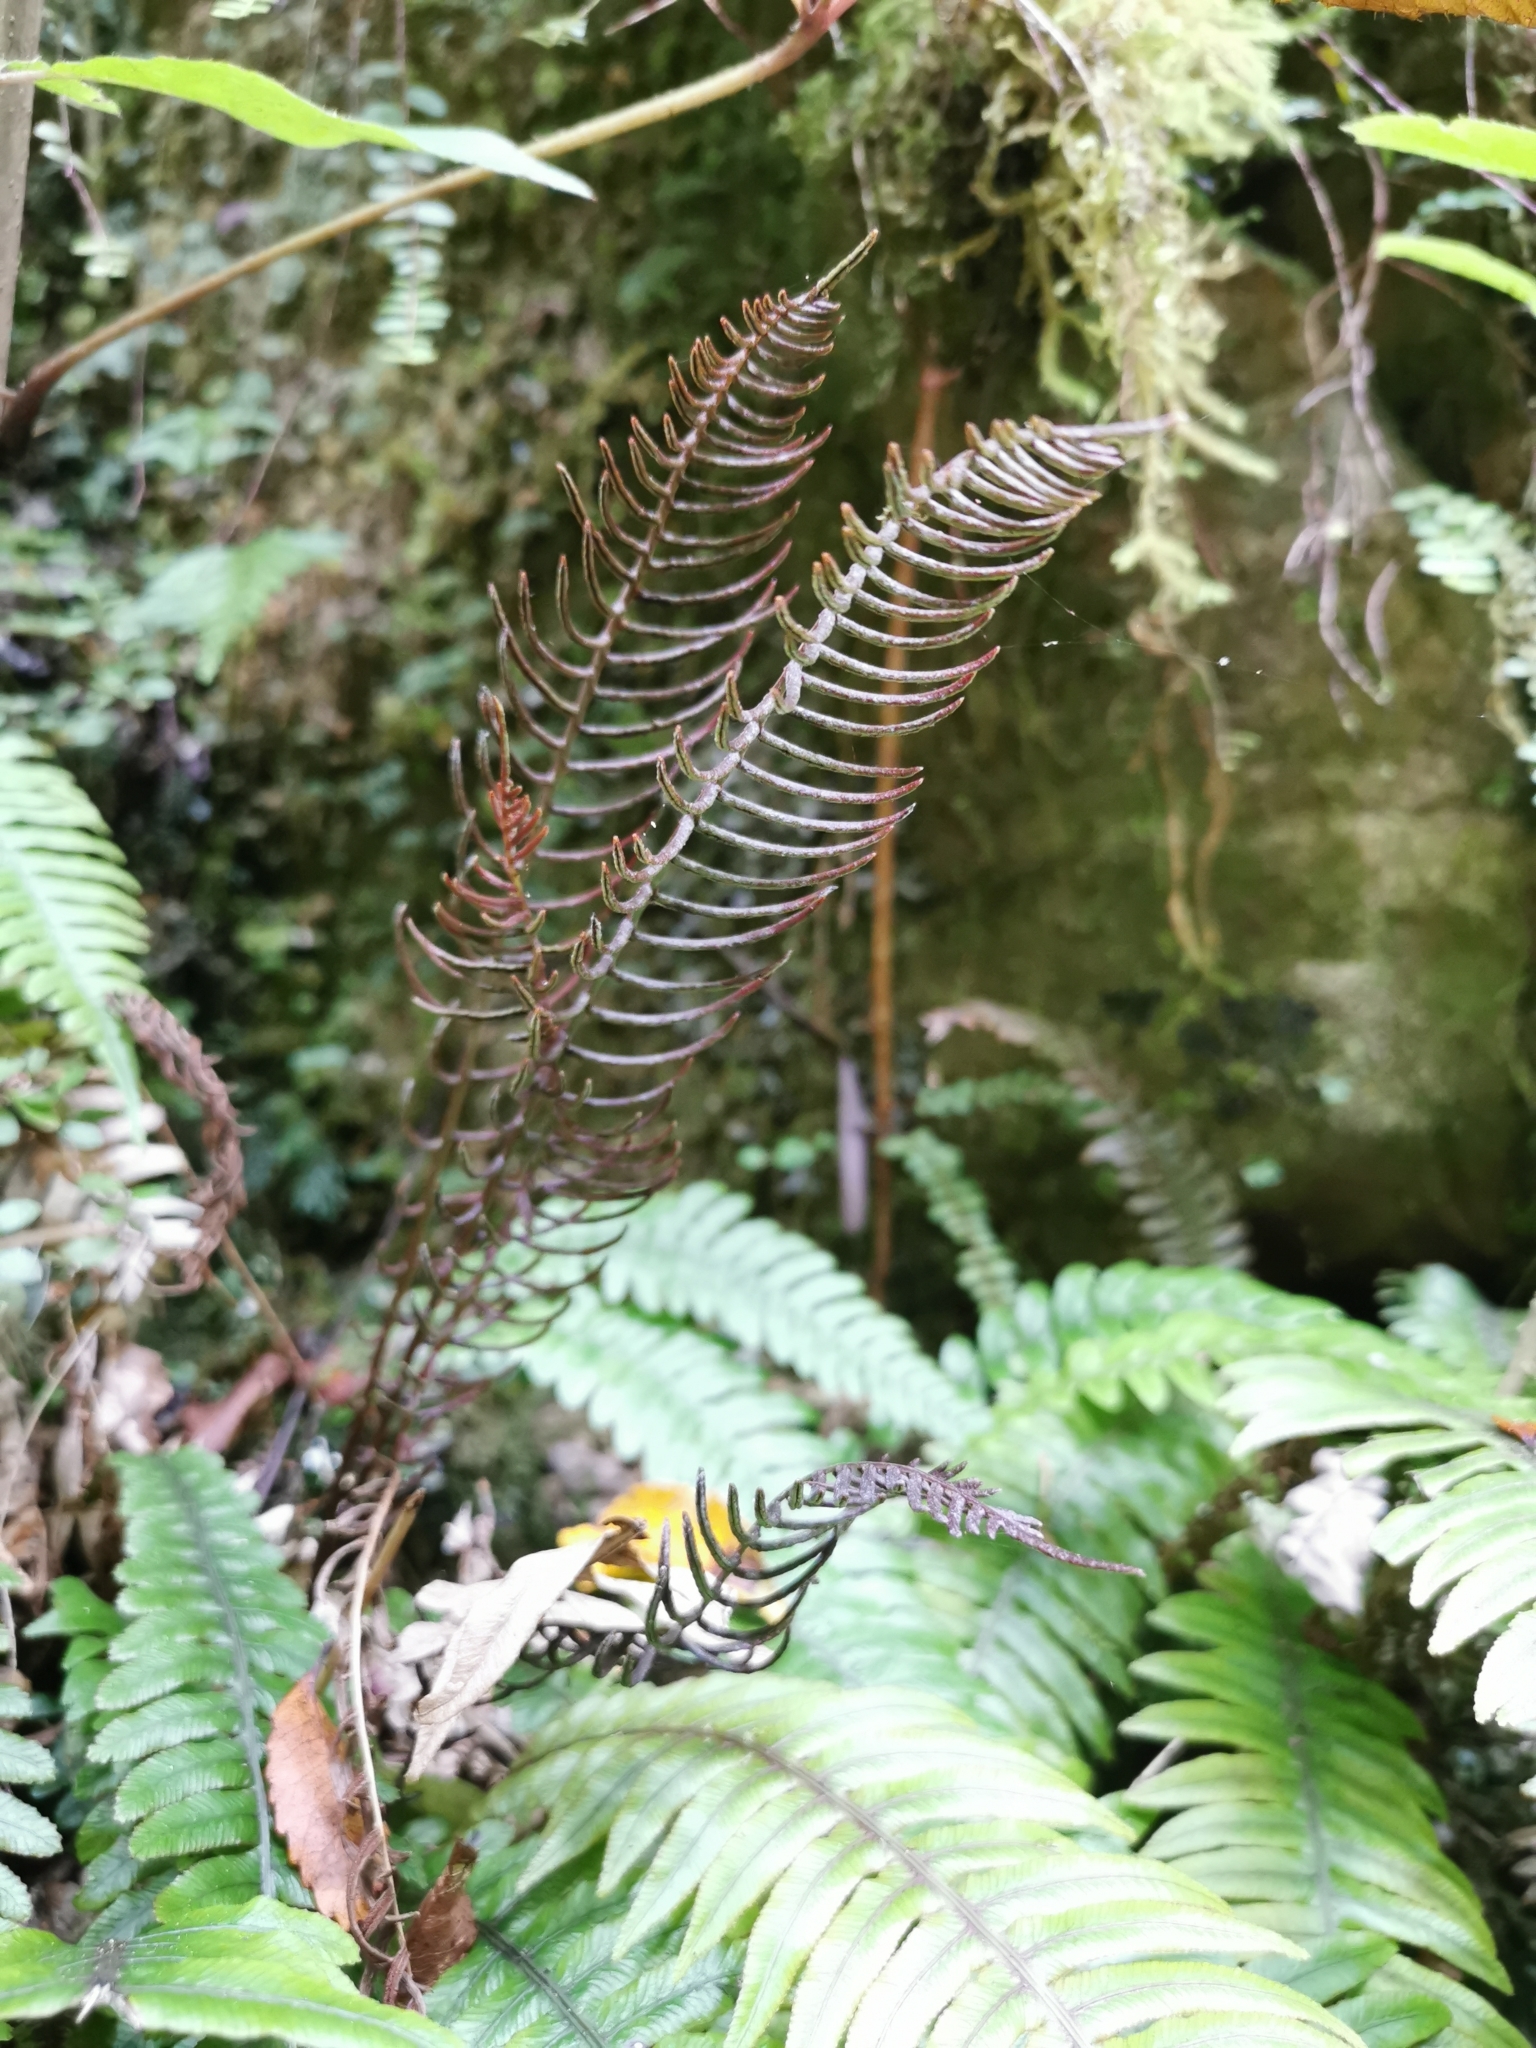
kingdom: Plantae
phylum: Tracheophyta
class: Polypodiopsida
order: Polypodiales
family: Blechnaceae
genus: Austroblechnum
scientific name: Austroblechnum lanceolatum
